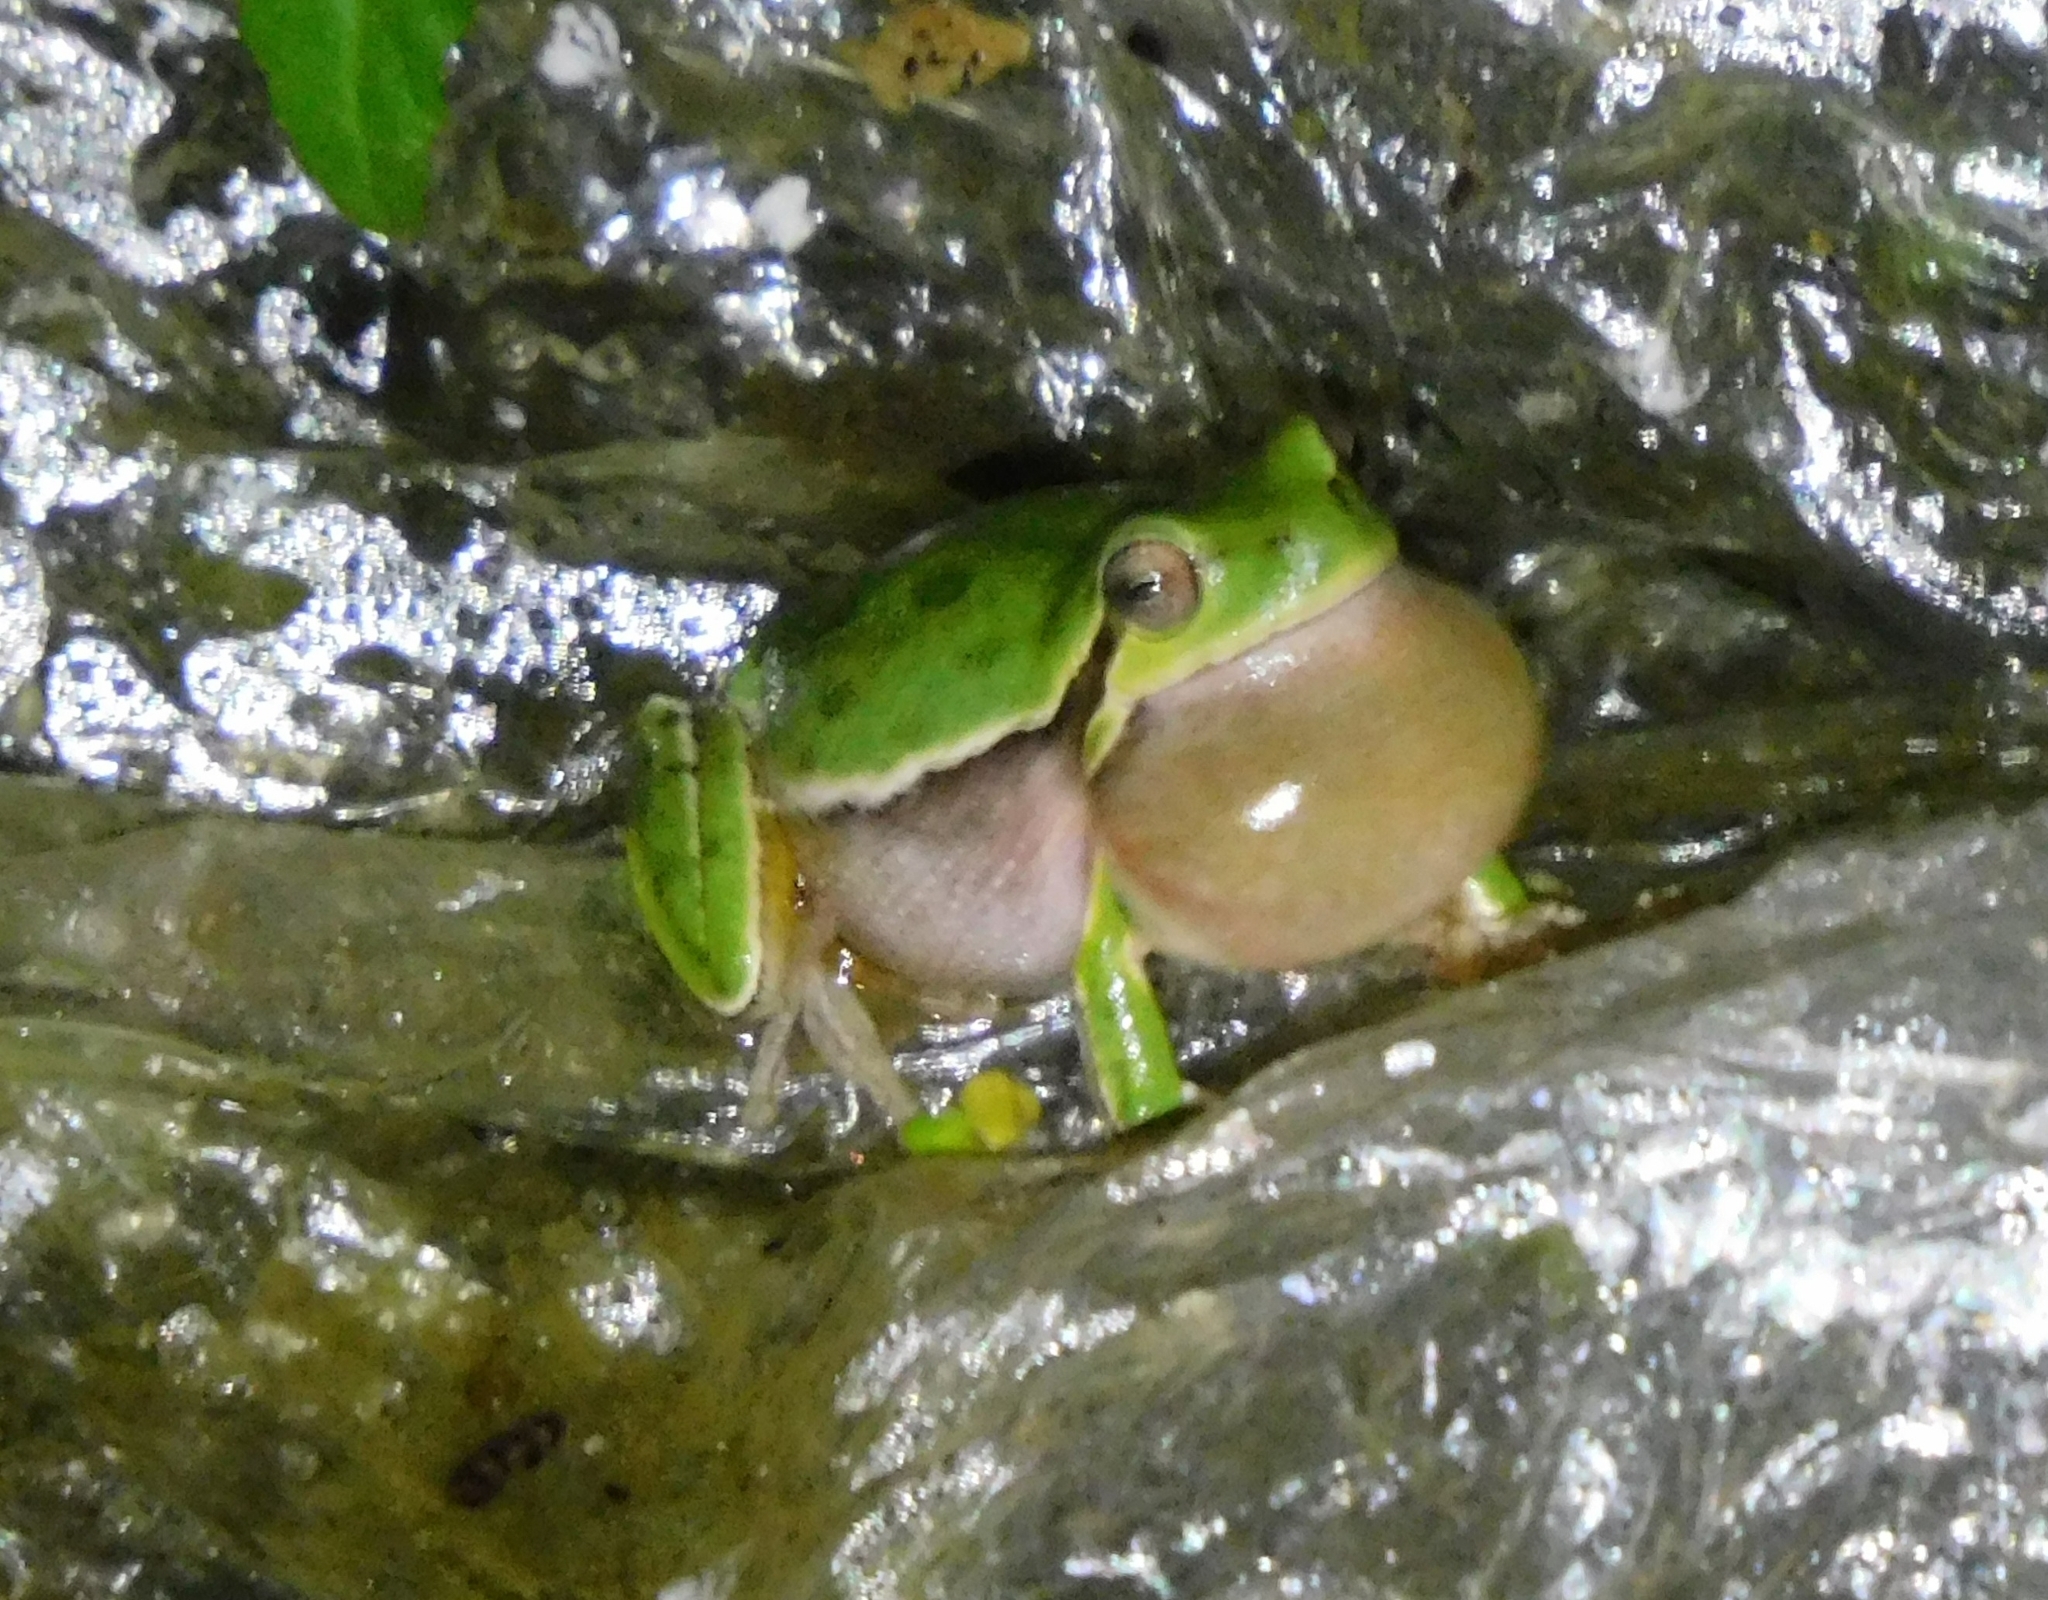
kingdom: Animalia
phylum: Chordata
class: Amphibia
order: Anura
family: Hylidae
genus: Hyla
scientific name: Hyla sarda
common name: Sardinian tree frog
